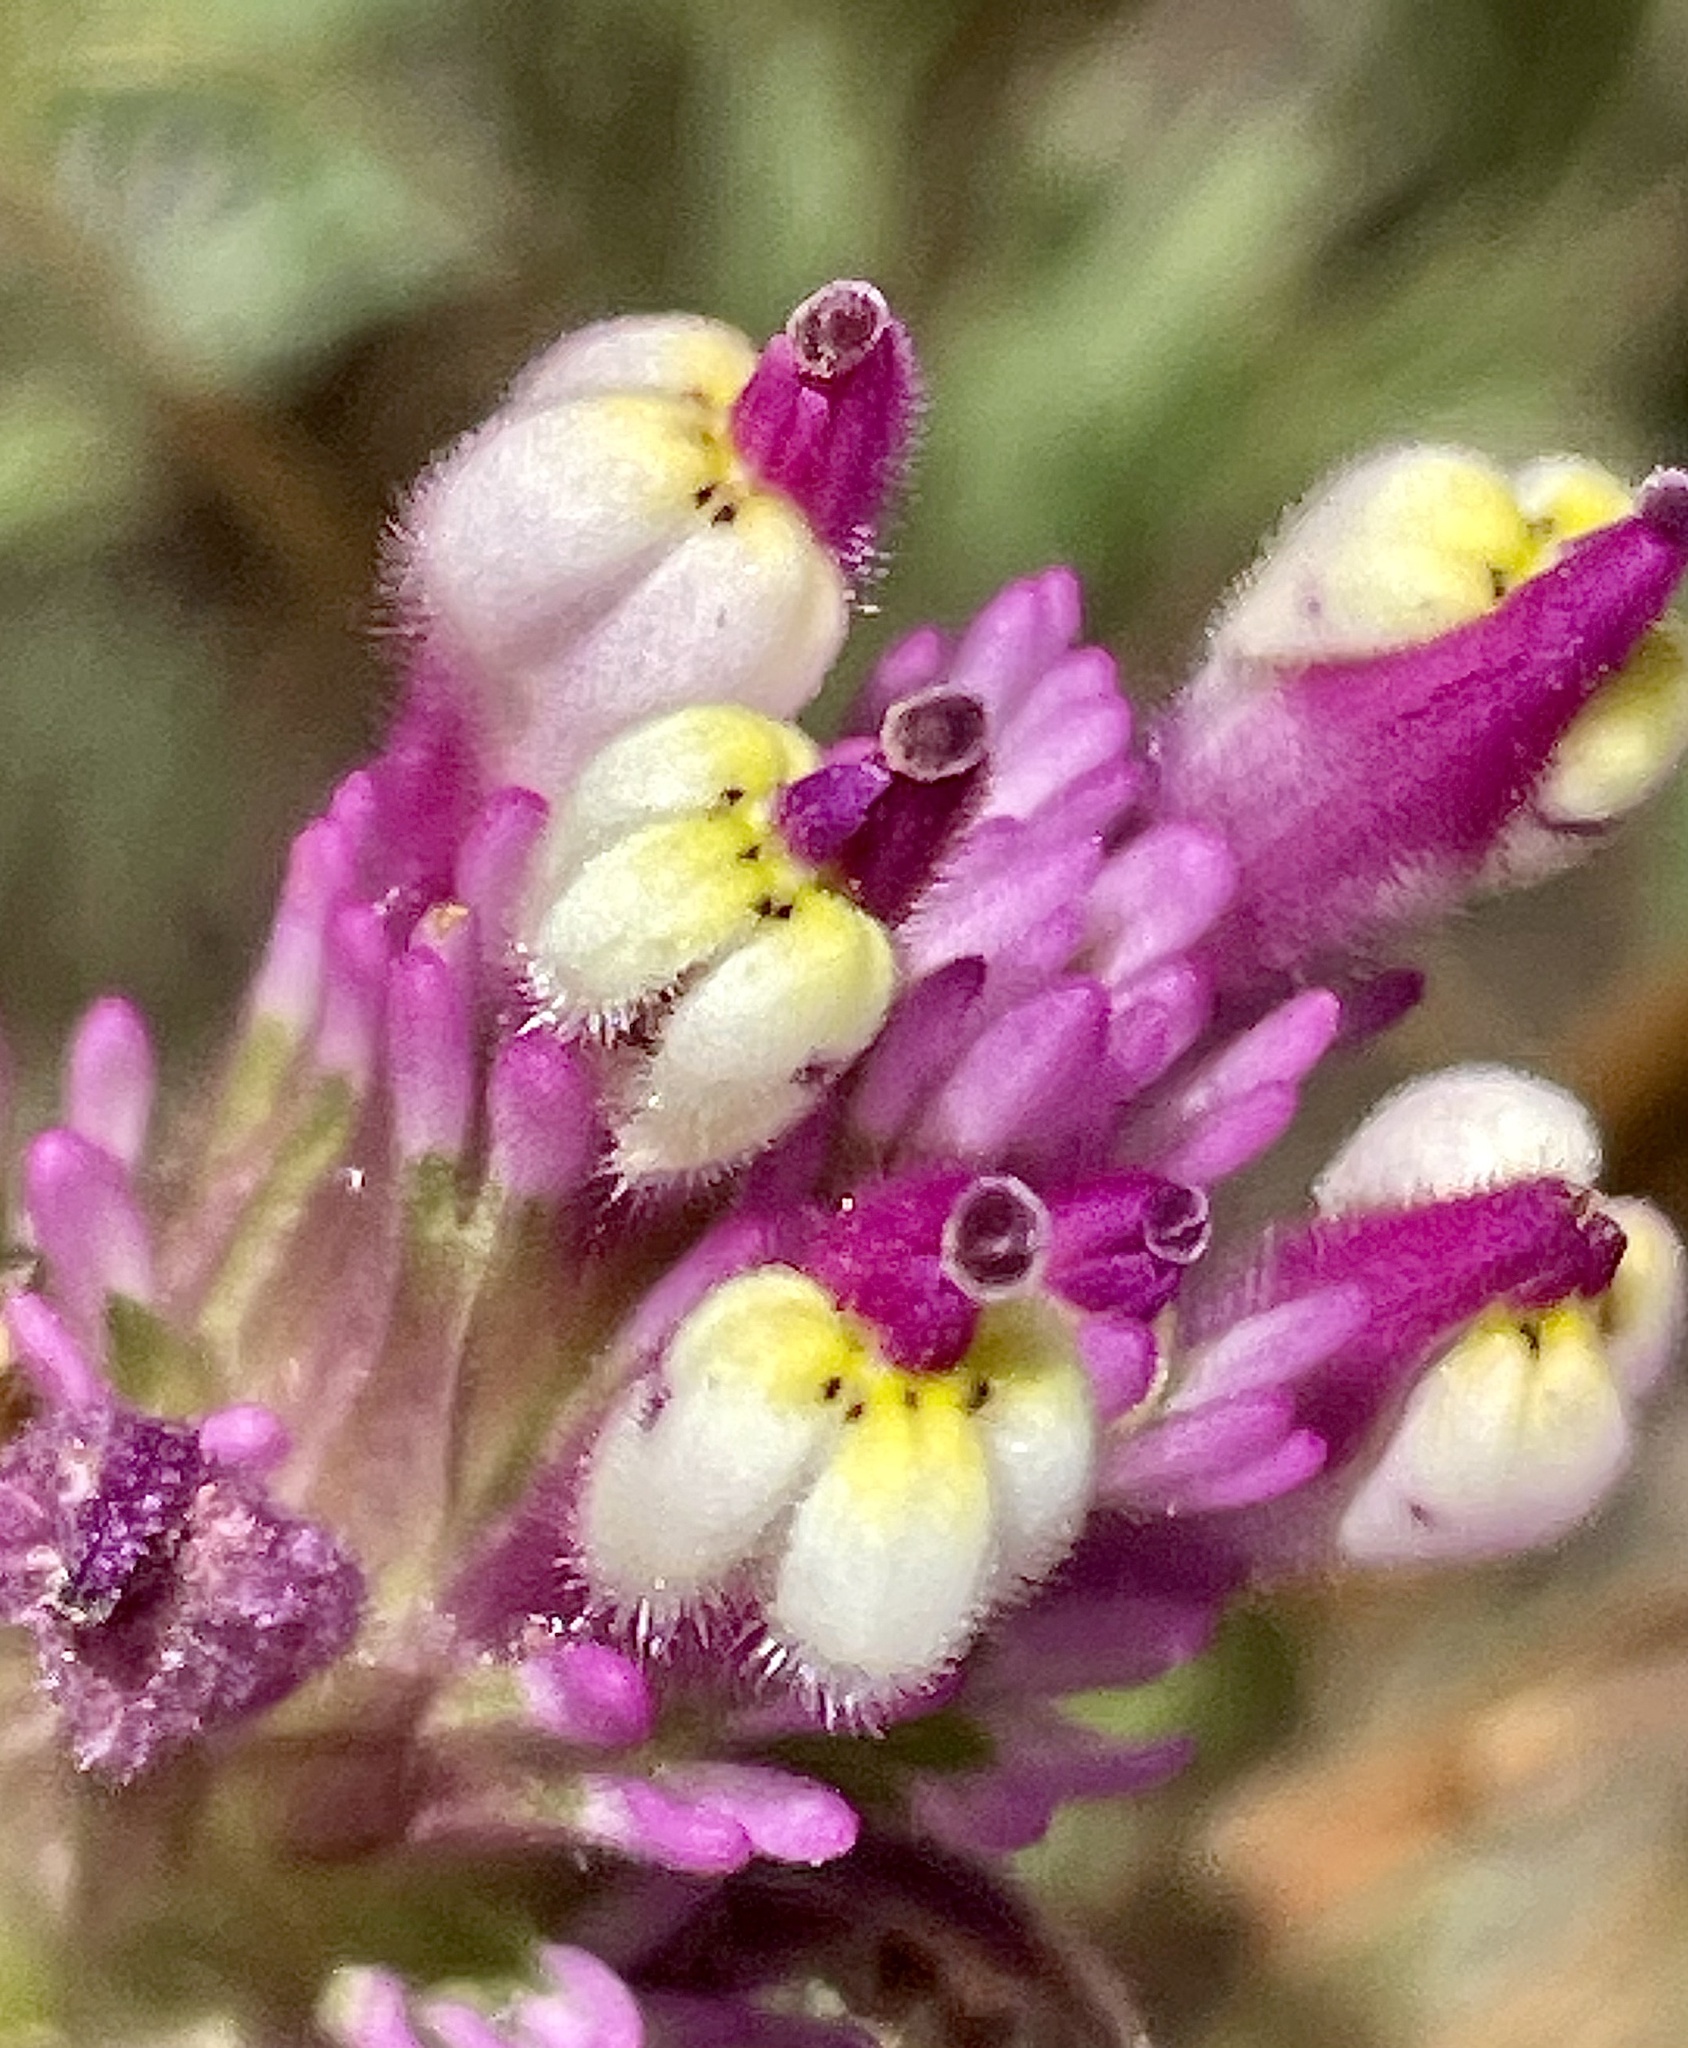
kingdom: Plantae
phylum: Tracheophyta
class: Magnoliopsida
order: Lamiales
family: Orobanchaceae
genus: Castilleja
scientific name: Castilleja densiflora
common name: Dense-flower indian paintbrush
